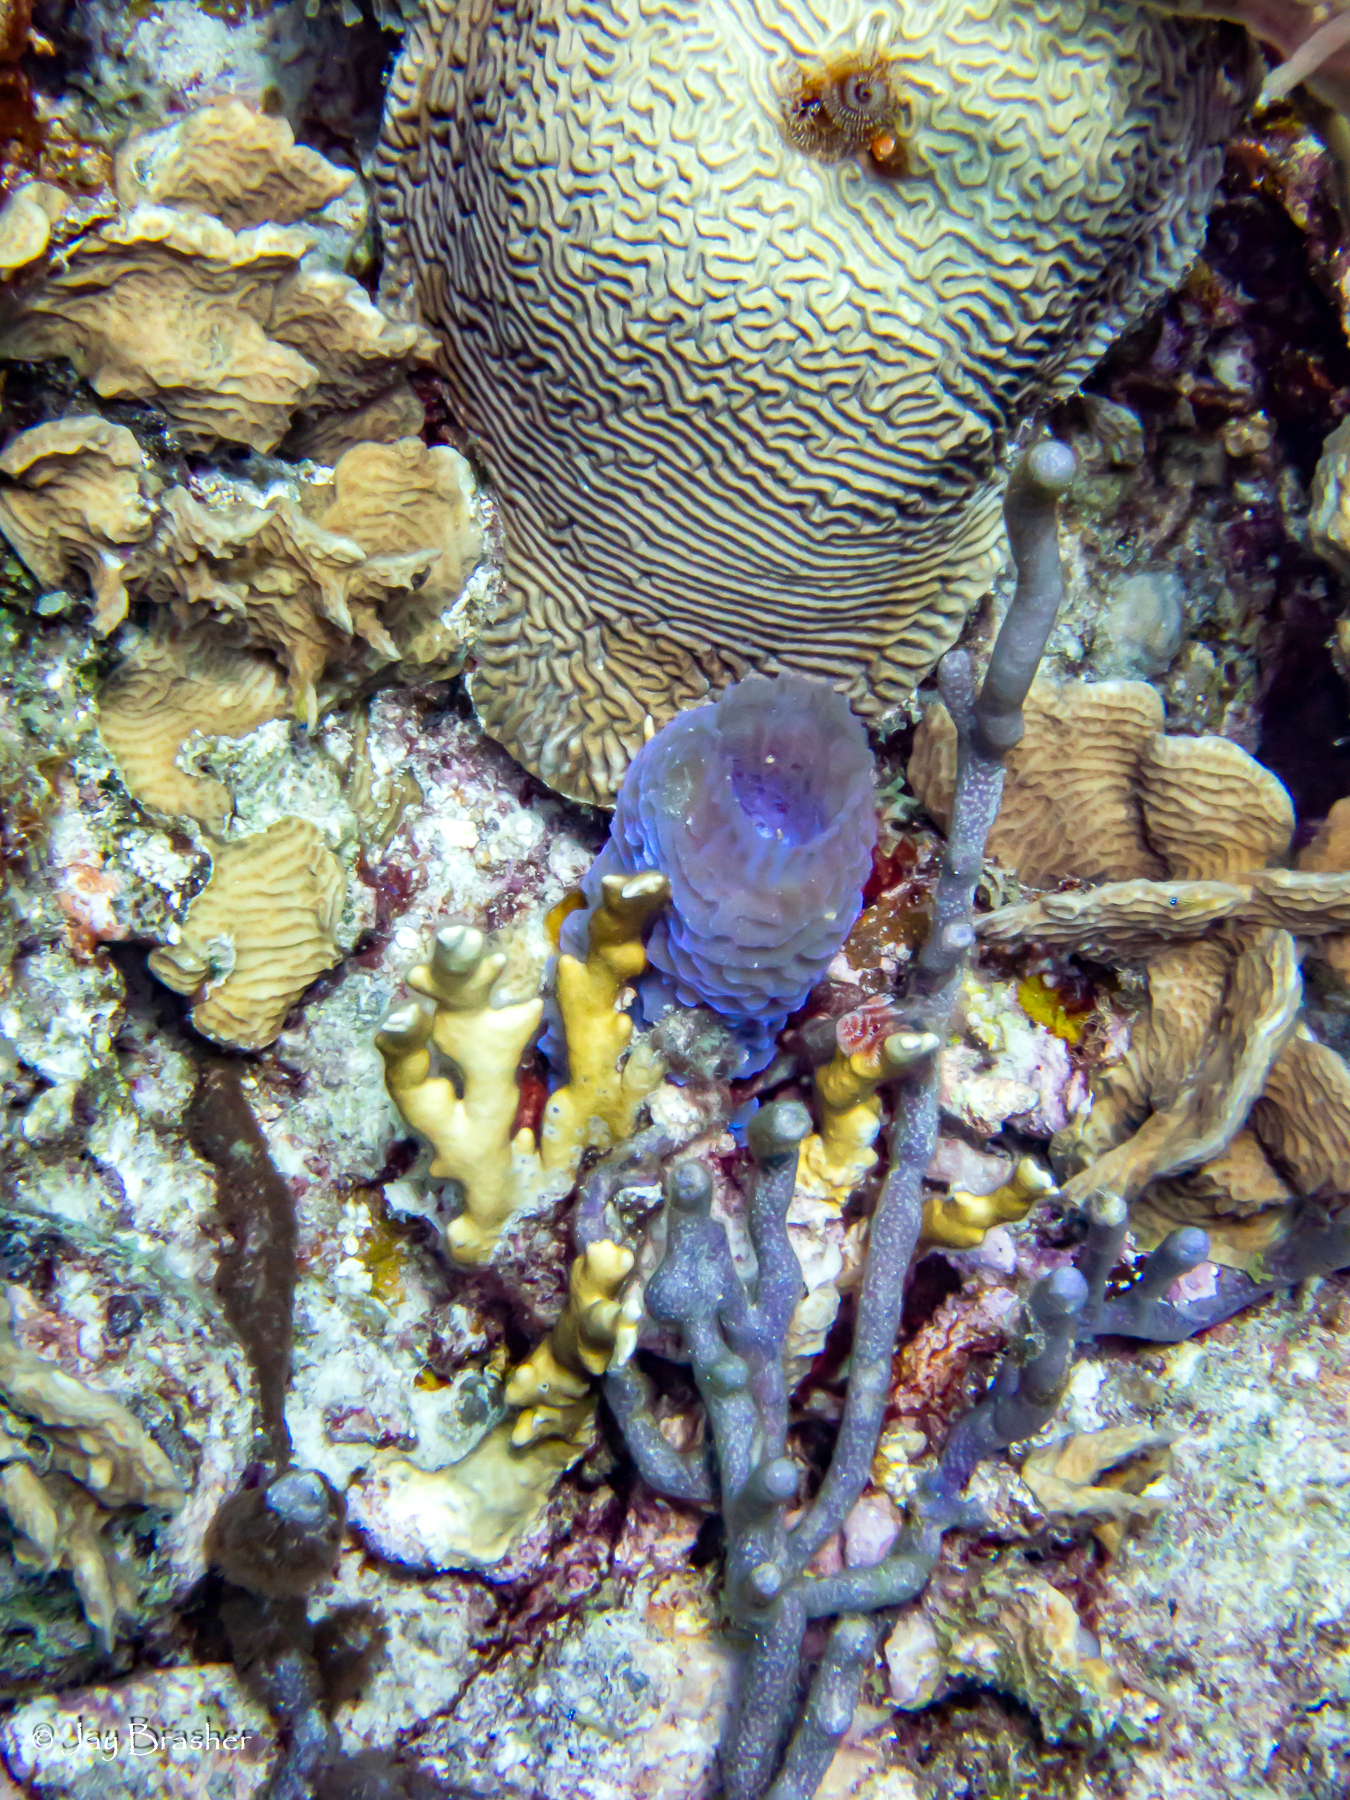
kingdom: Animalia
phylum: Cnidaria
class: Anthozoa
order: Scleractinia
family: Agariciidae
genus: Agaricia
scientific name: Agaricia agaricites
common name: Lettuce coral
